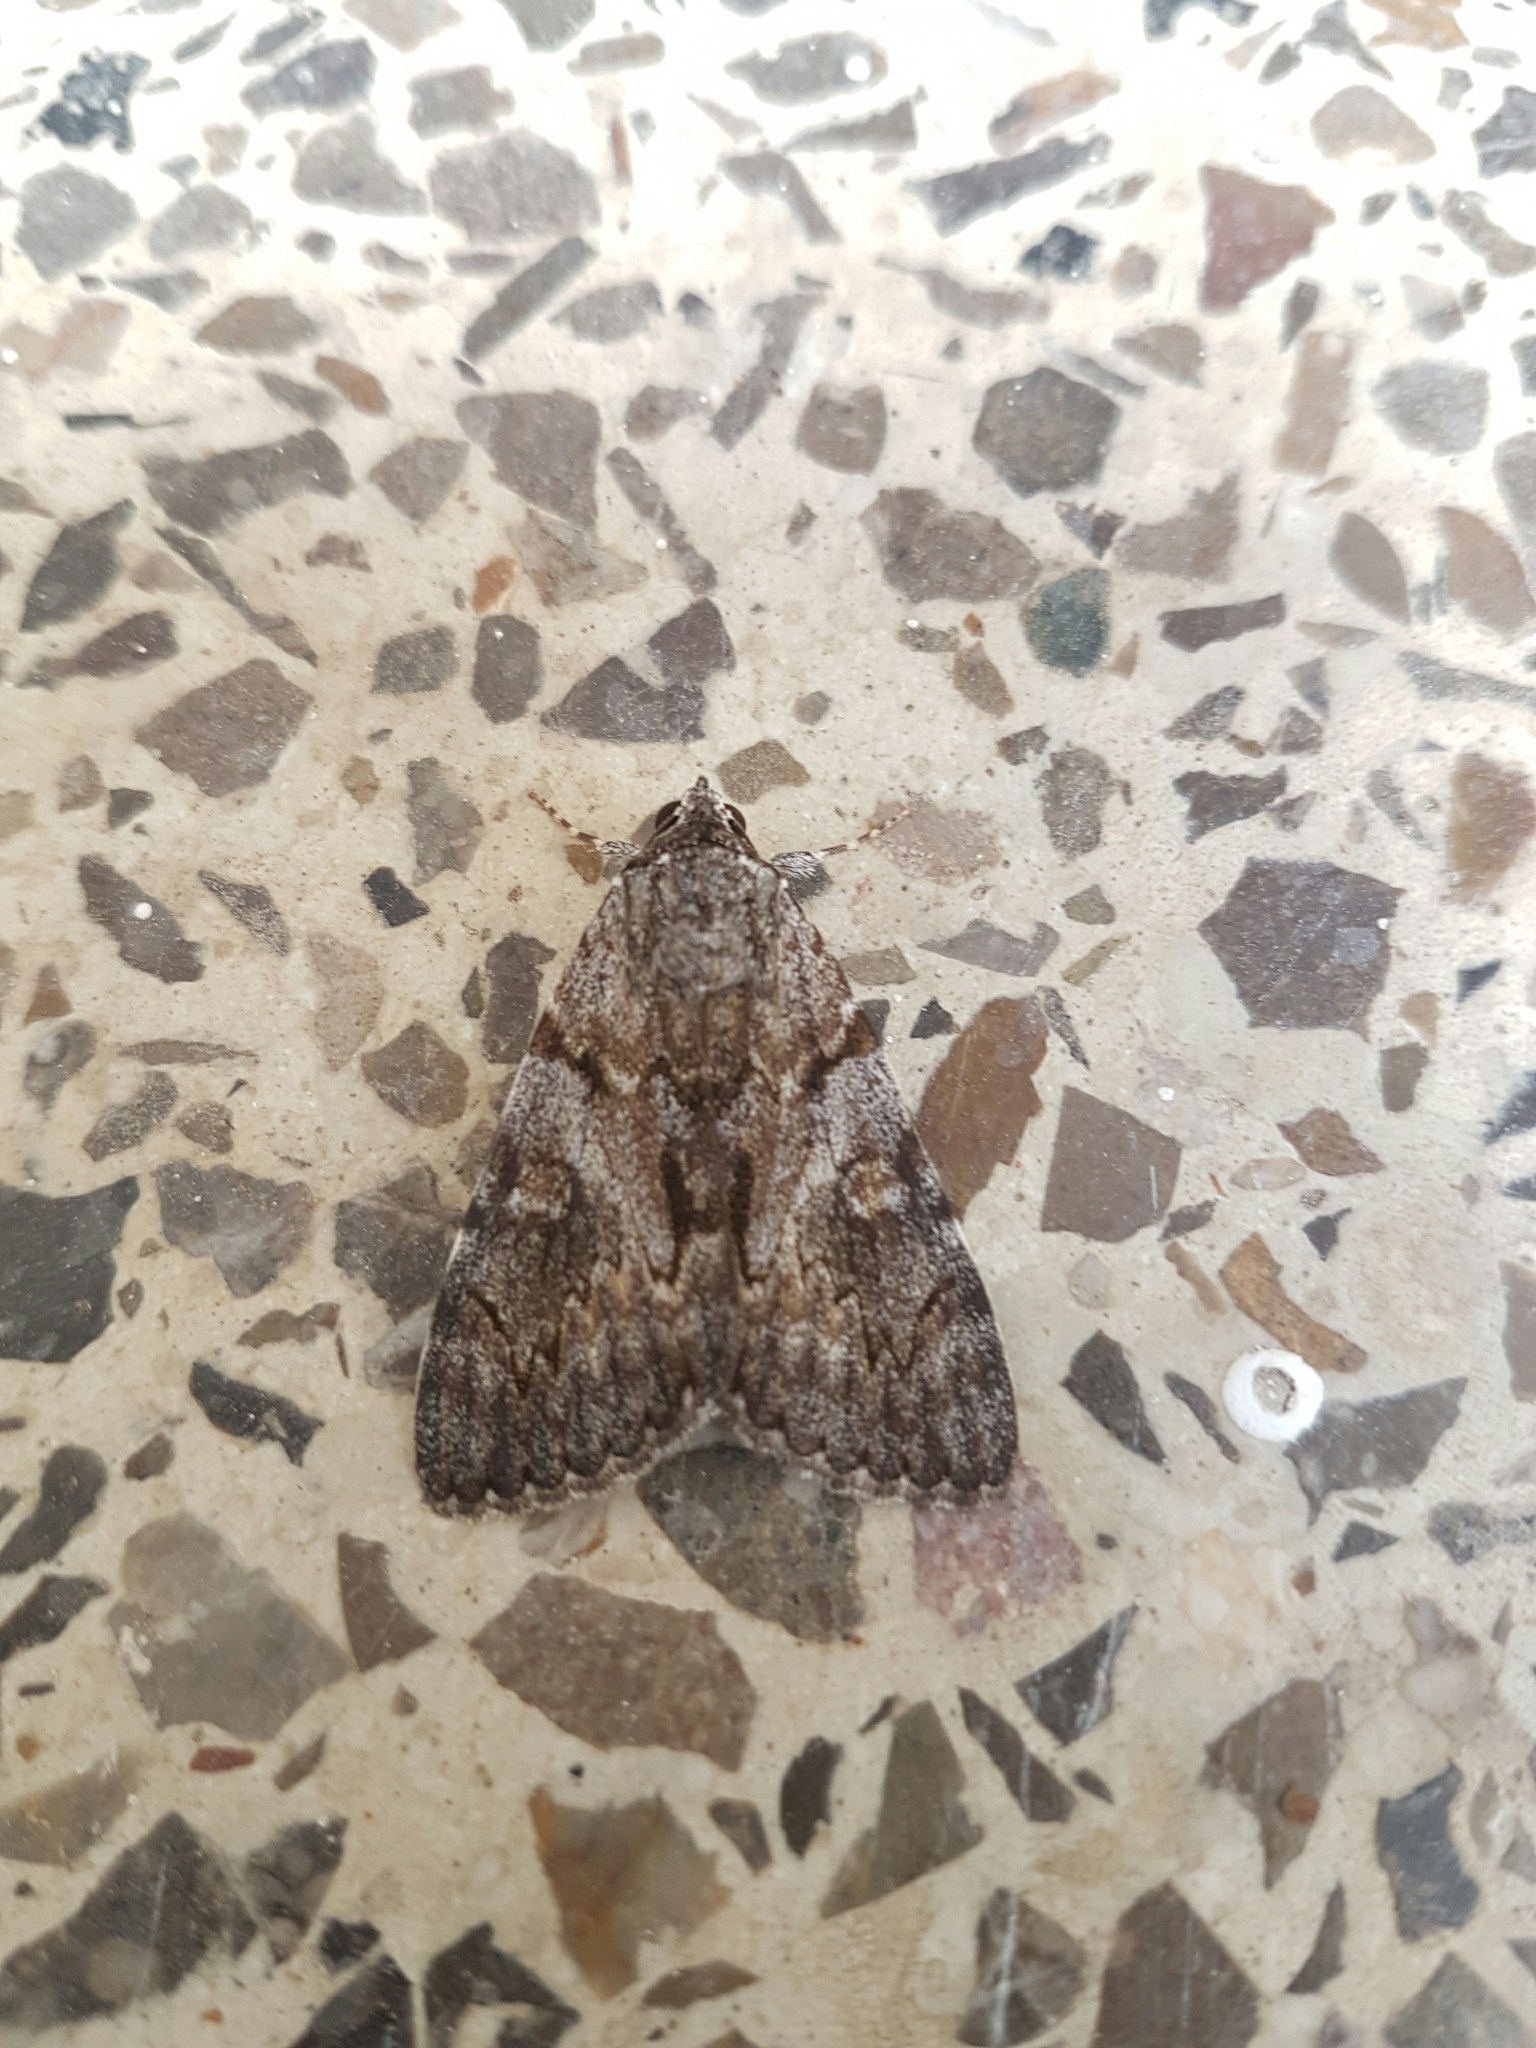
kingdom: Animalia
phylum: Arthropoda
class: Insecta
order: Lepidoptera
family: Erebidae
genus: Catocala
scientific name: Catocala conversa
